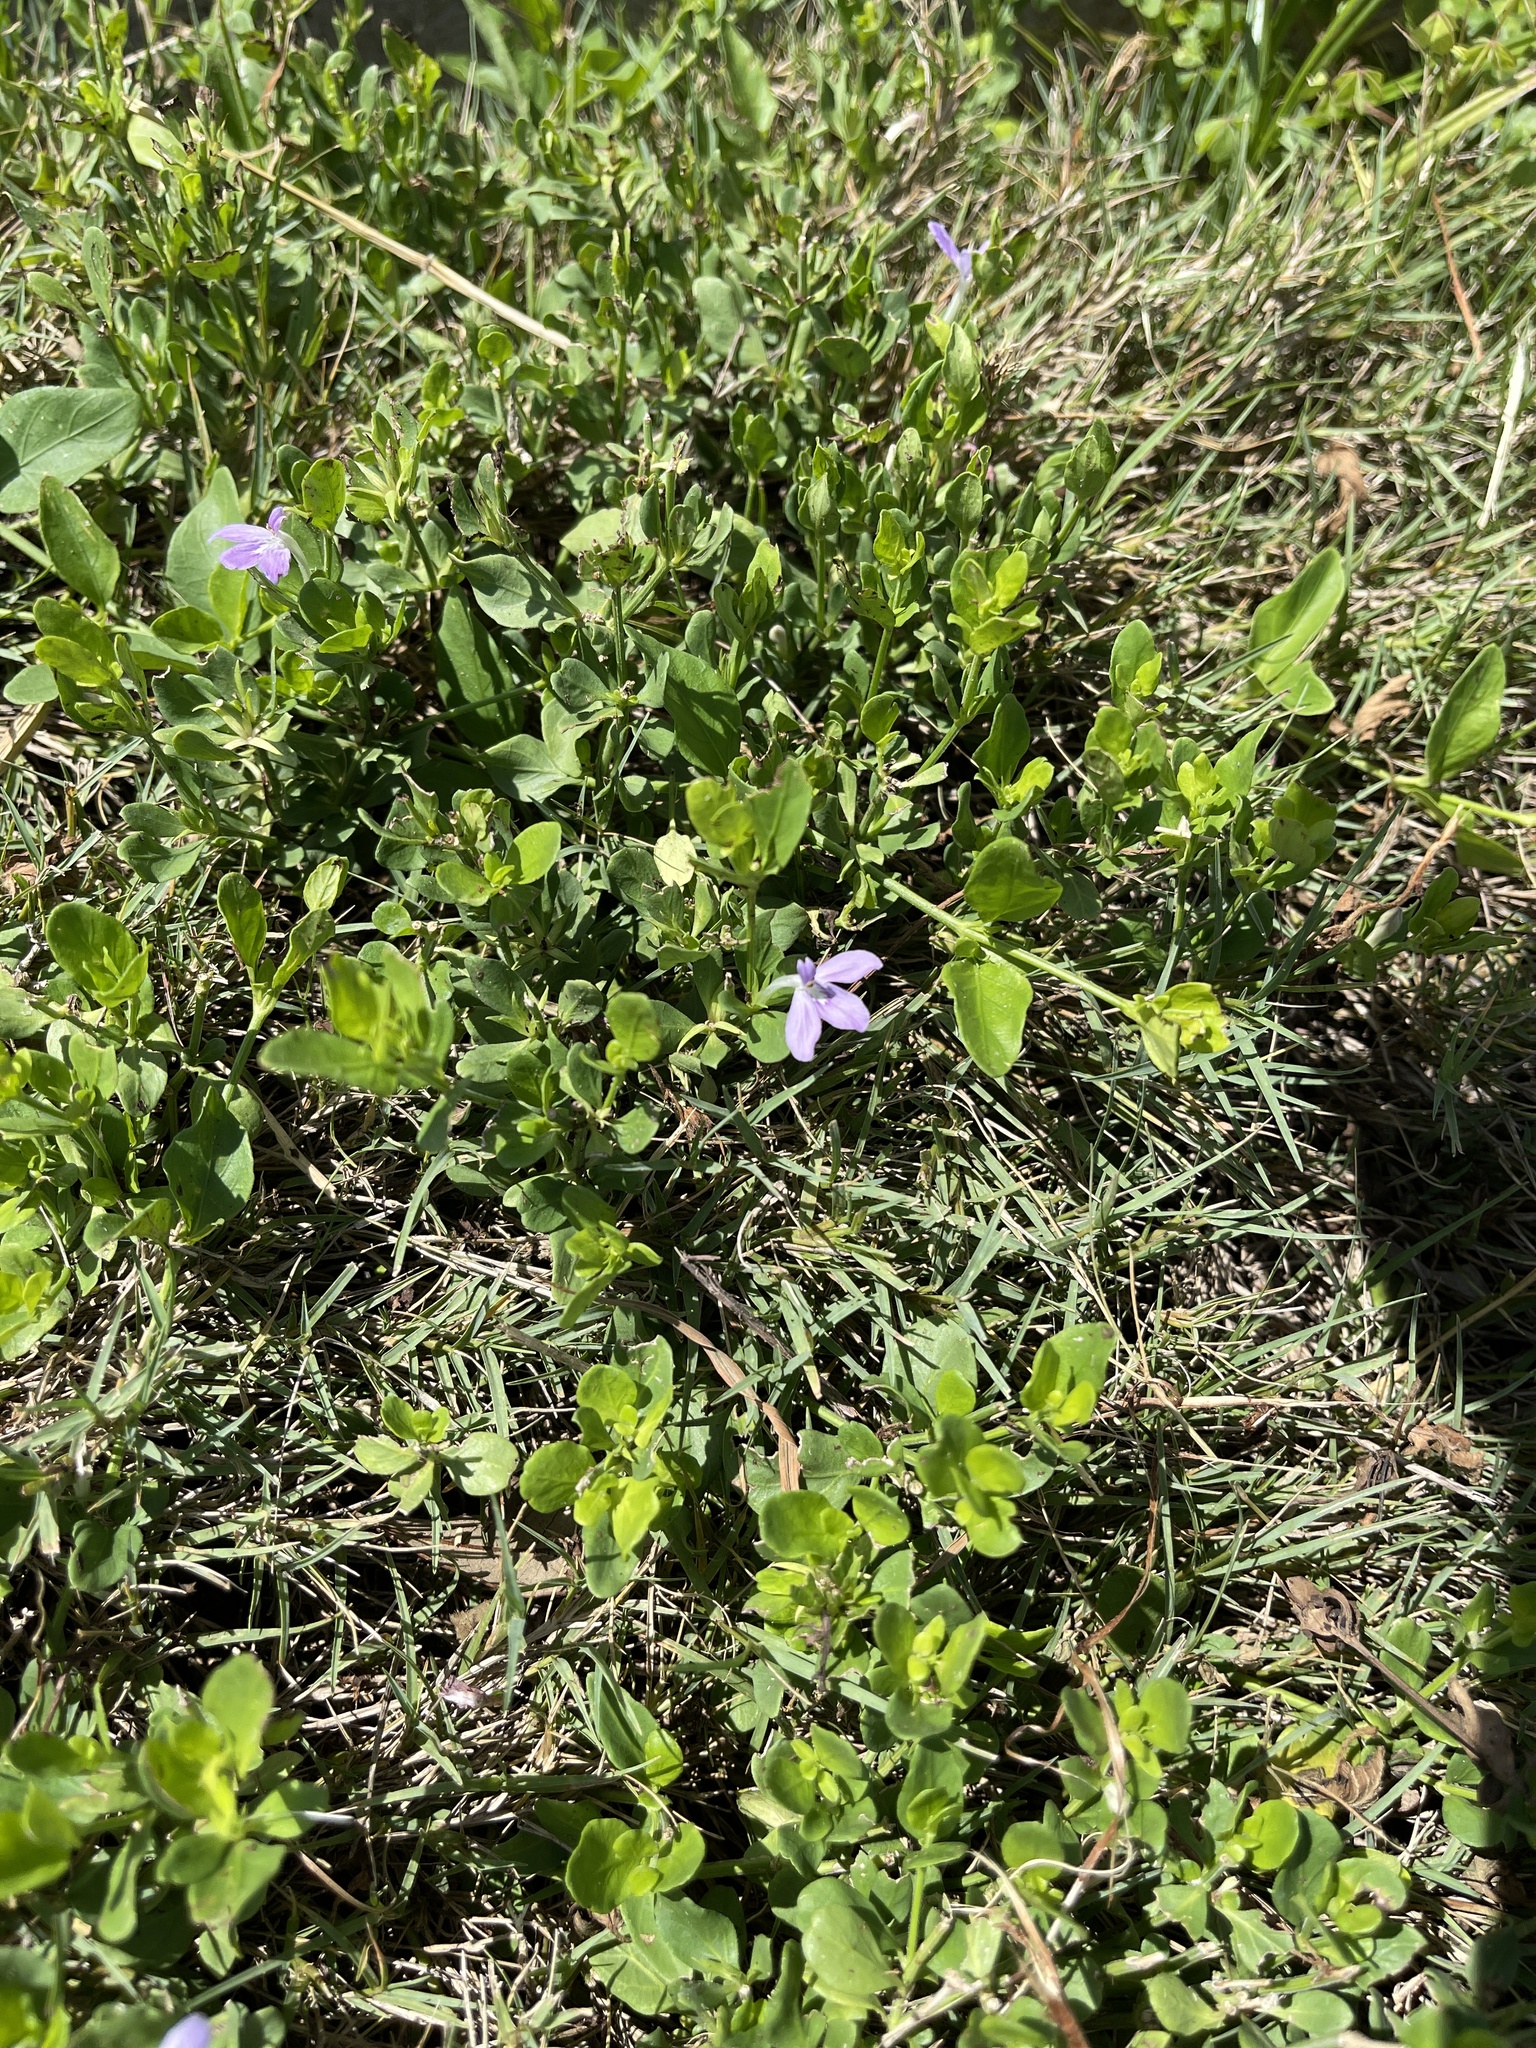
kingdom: Plantae
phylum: Tracheophyta
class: Magnoliopsida
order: Lamiales
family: Acanthaceae
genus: Justicia
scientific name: Justicia pilosella
